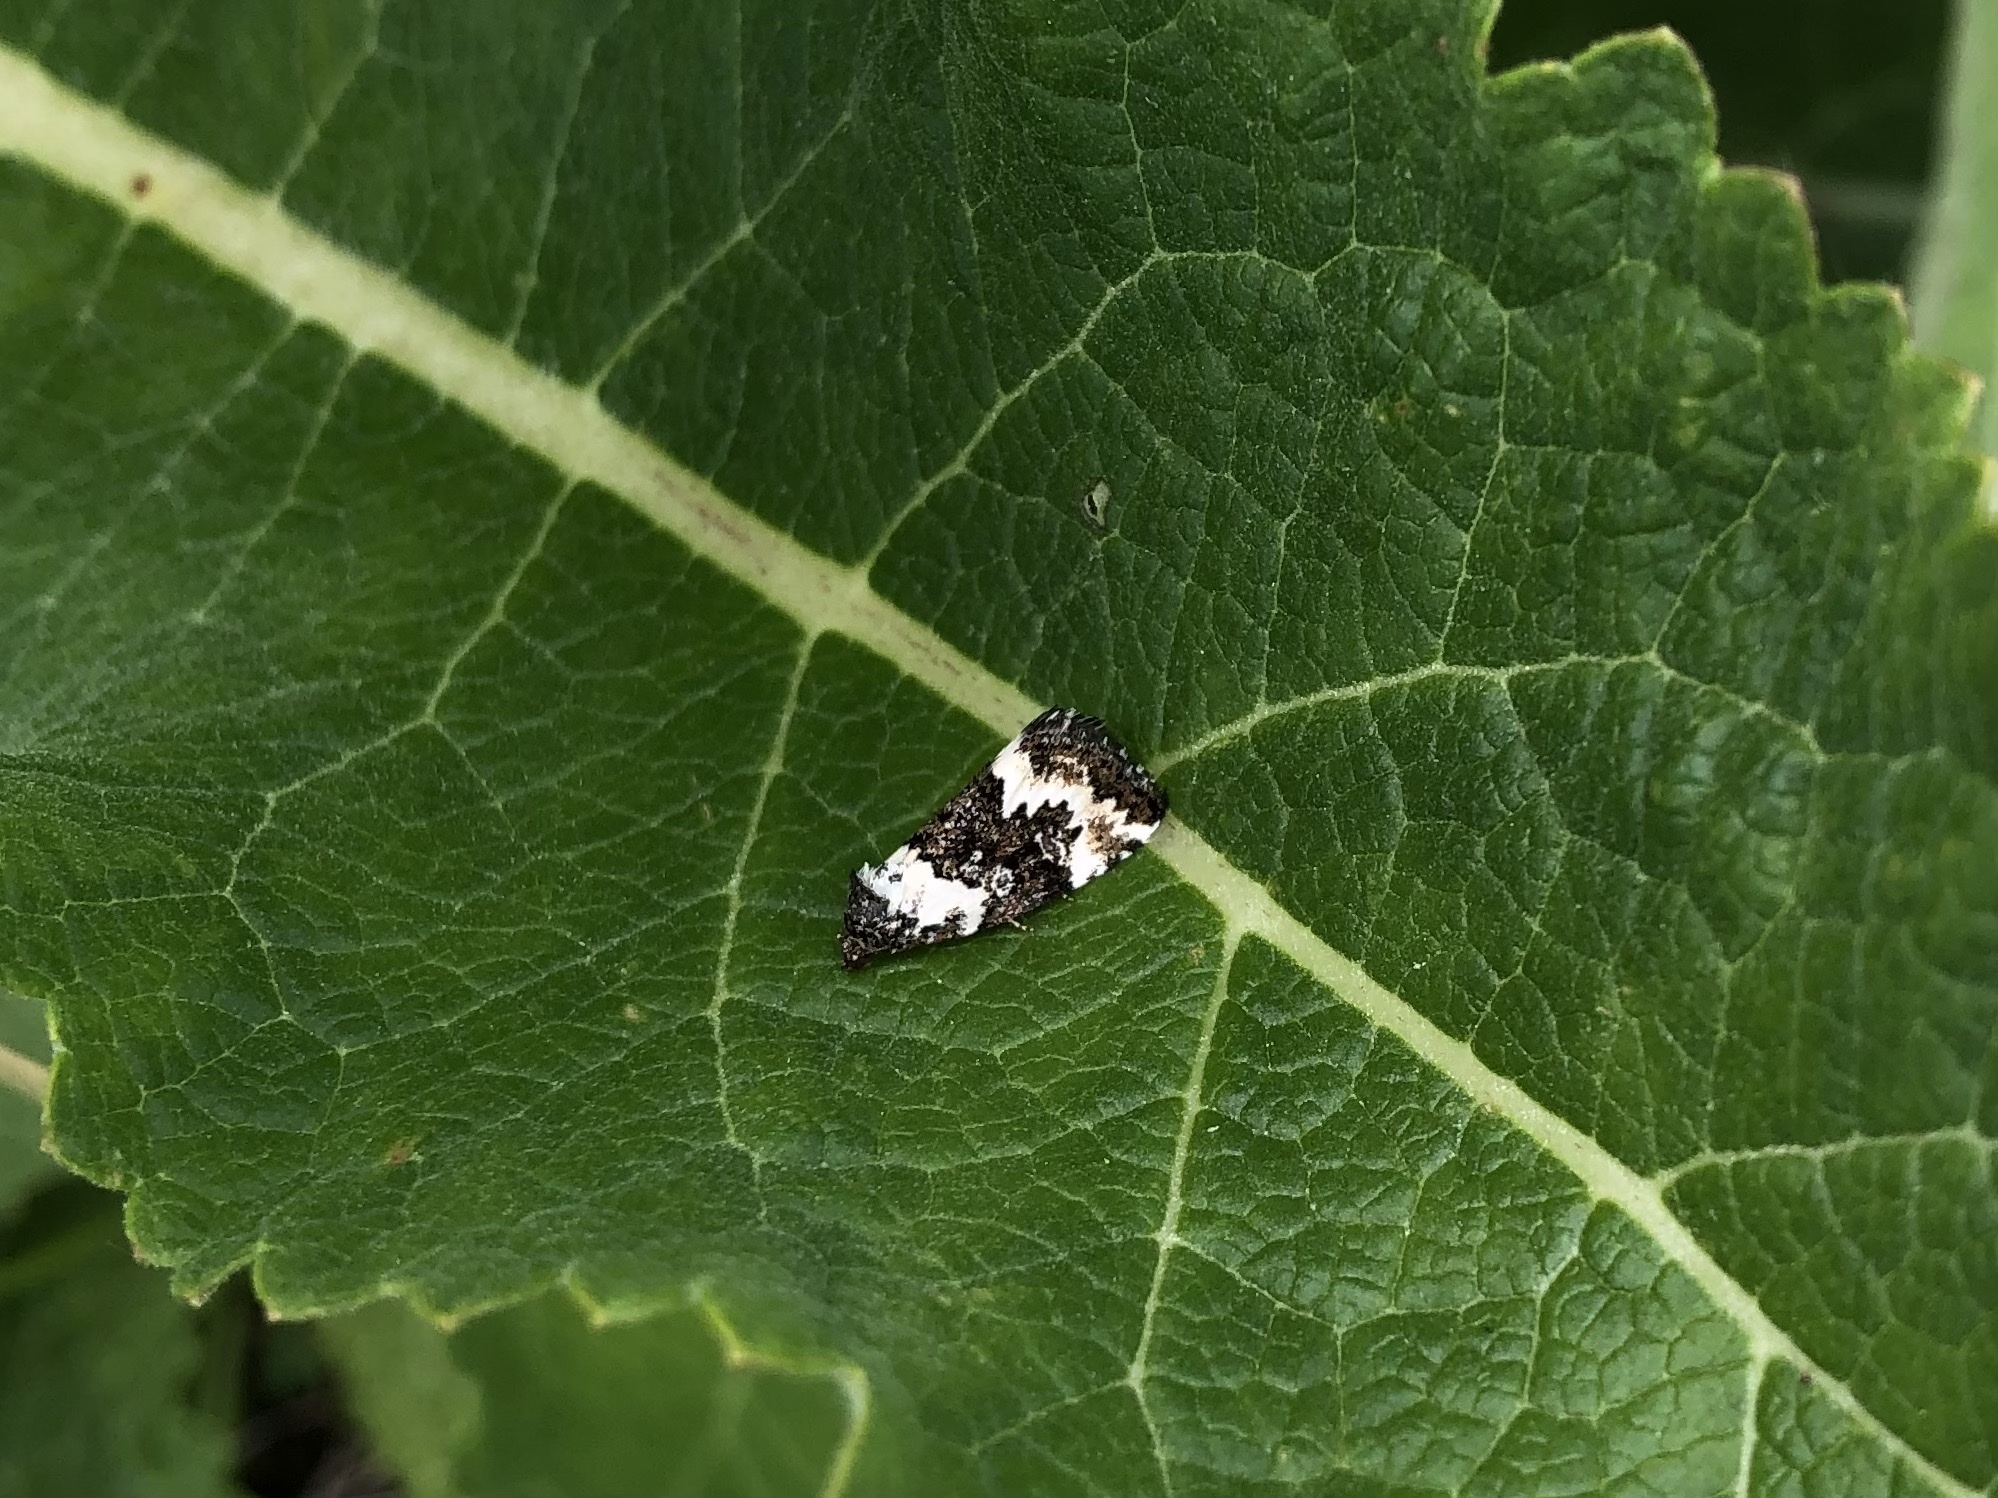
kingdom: Animalia
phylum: Arthropoda
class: Insecta
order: Lepidoptera
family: Noctuidae
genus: Deltote
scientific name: Deltote deceptoria
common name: Pretty marbled
